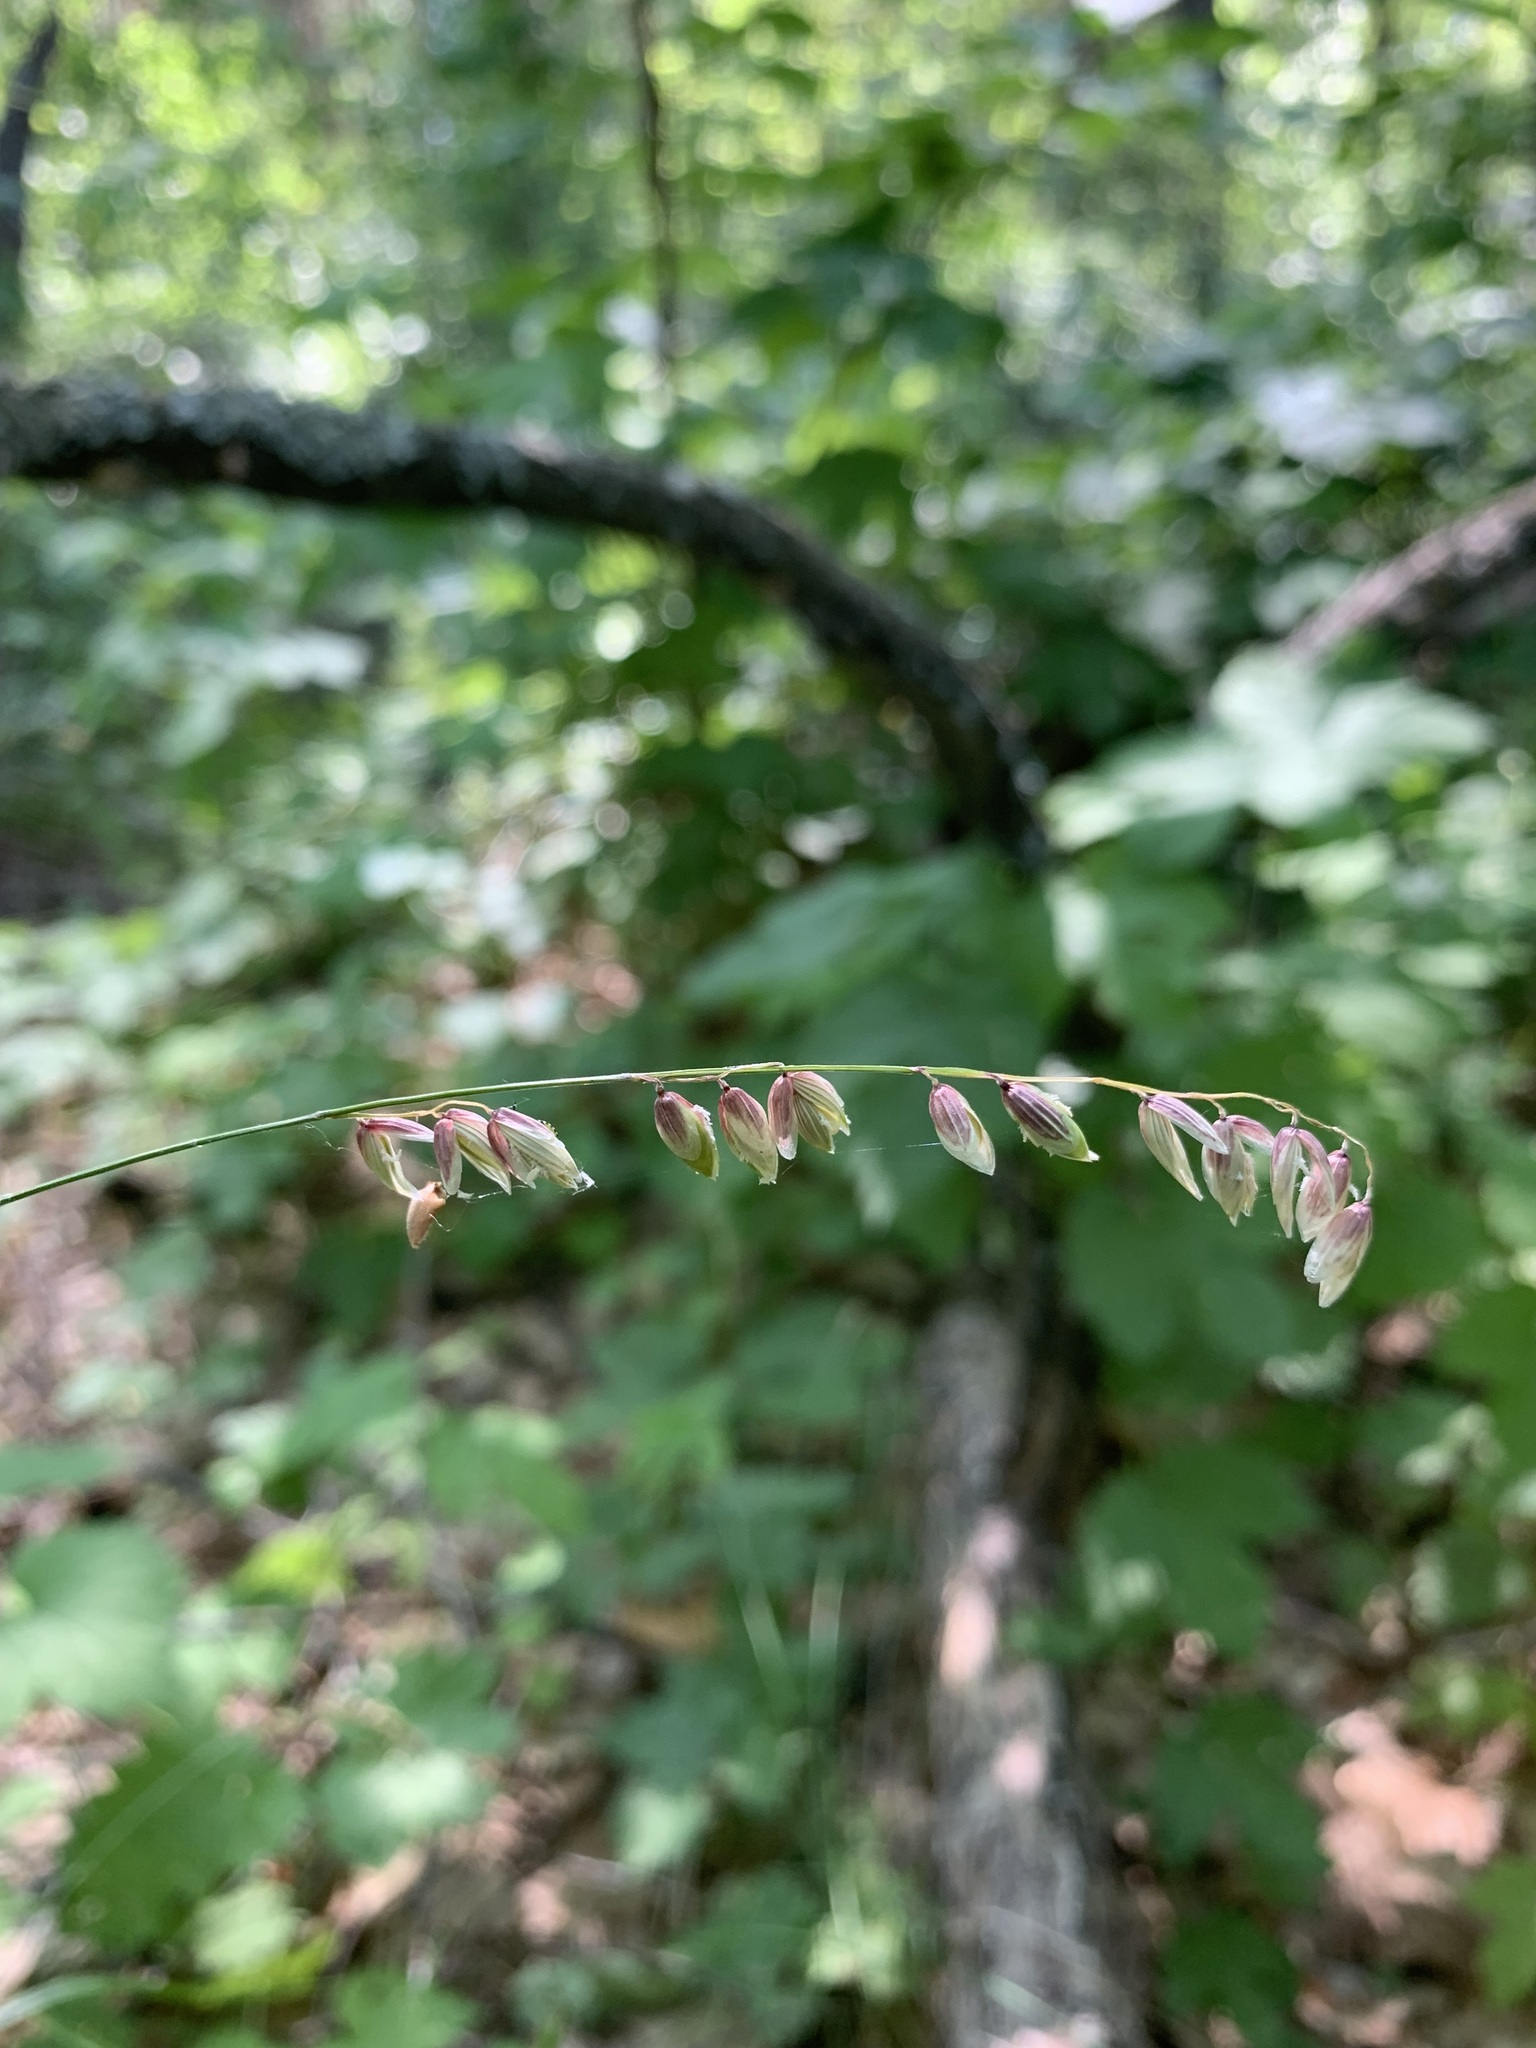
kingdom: Plantae
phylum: Tracheophyta
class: Liliopsida
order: Poales
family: Poaceae
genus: Melica
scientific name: Melica nutans
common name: Mountain melick
